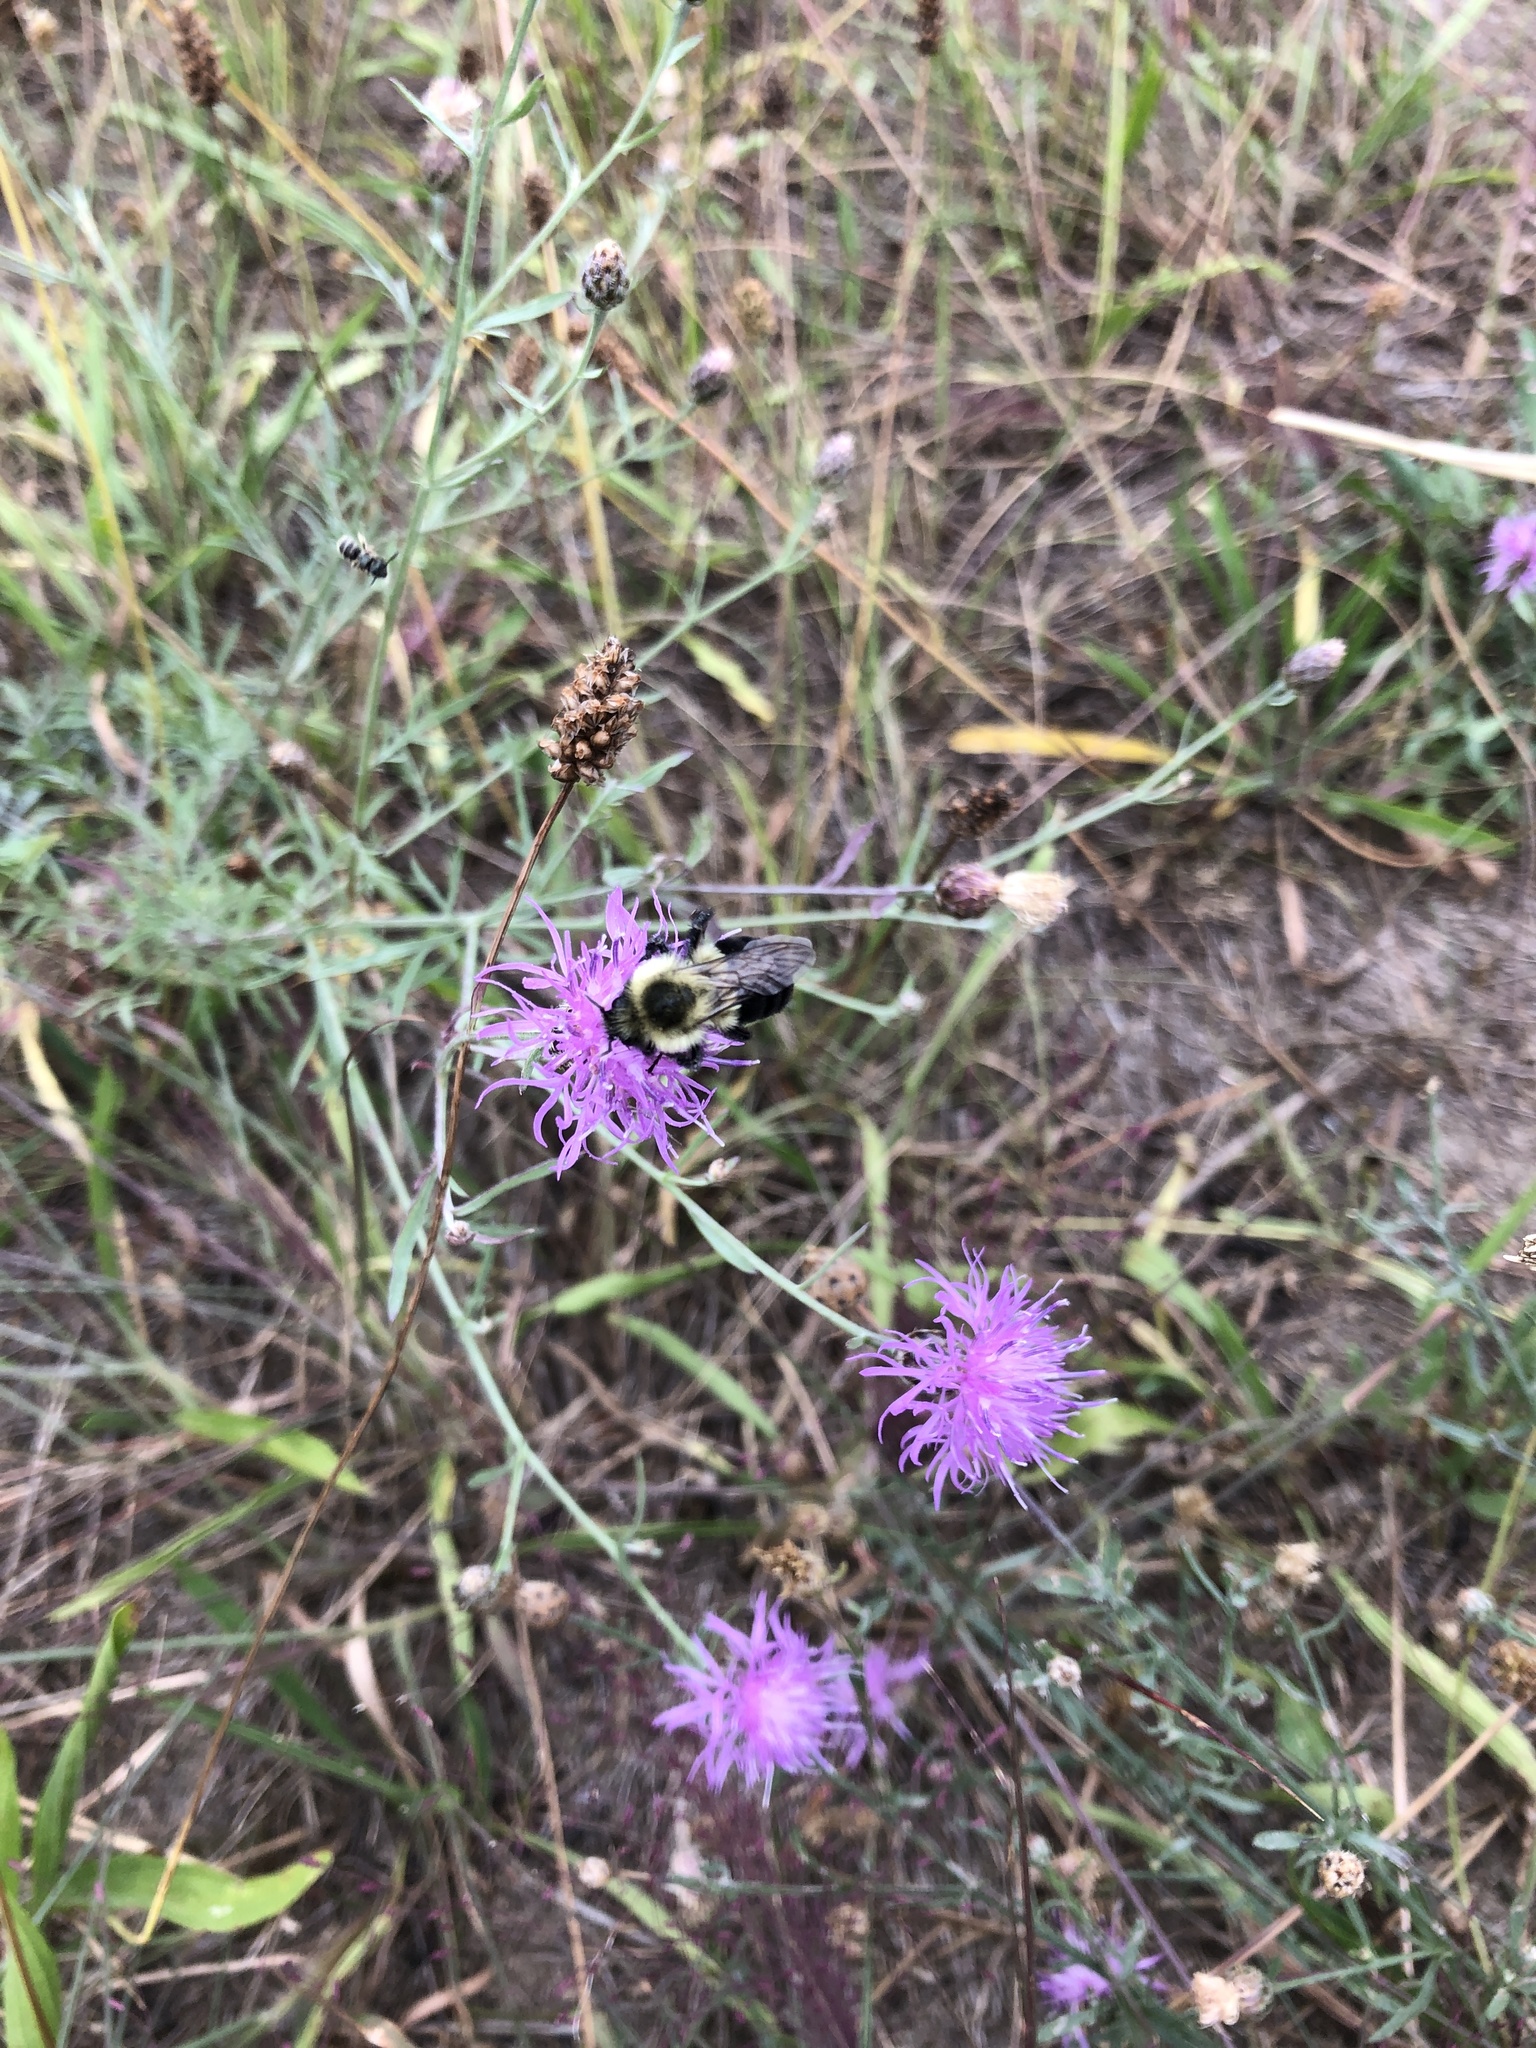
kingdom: Plantae
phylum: Tracheophyta
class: Magnoliopsida
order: Asterales
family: Asteraceae
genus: Centaurea
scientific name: Centaurea stoebe
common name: Spotted knapweed
